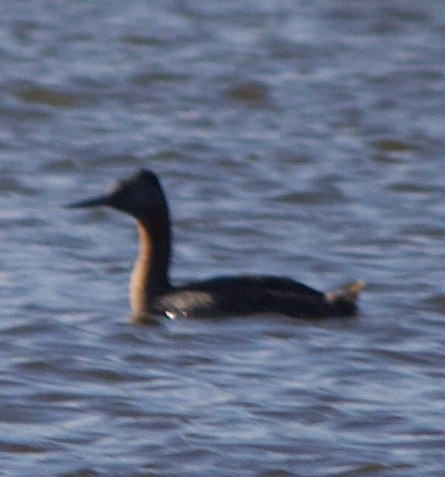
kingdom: Animalia
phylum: Chordata
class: Aves
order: Podicipediformes
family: Podicipedidae
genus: Podiceps
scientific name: Podiceps major
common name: Great grebe
